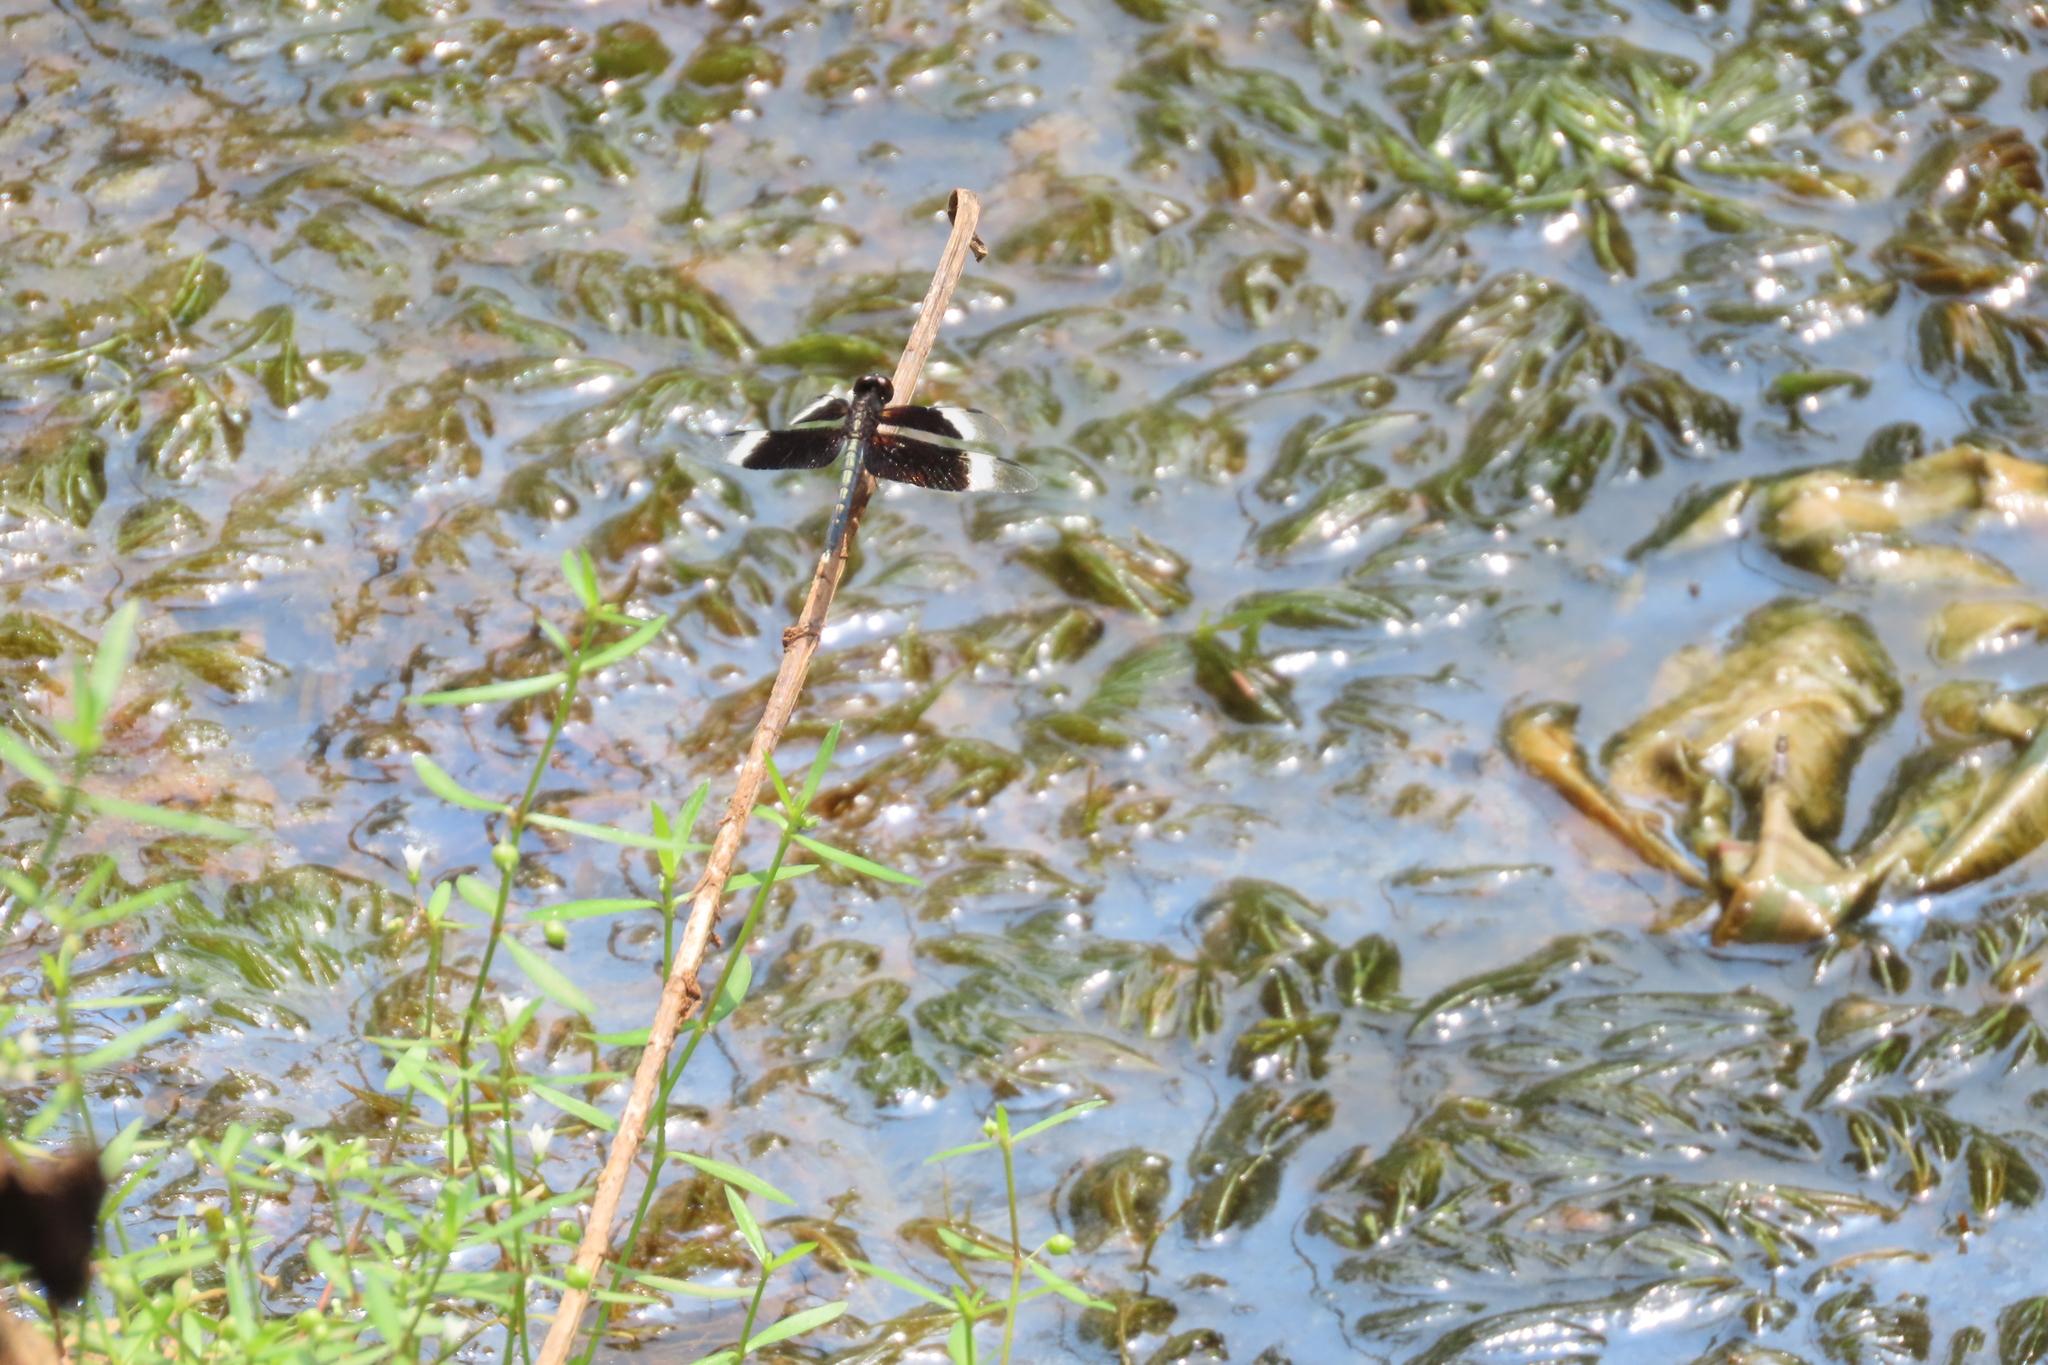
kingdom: Animalia
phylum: Arthropoda
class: Insecta
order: Odonata
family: Libellulidae
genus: Neurothemis
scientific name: Neurothemis tullia
